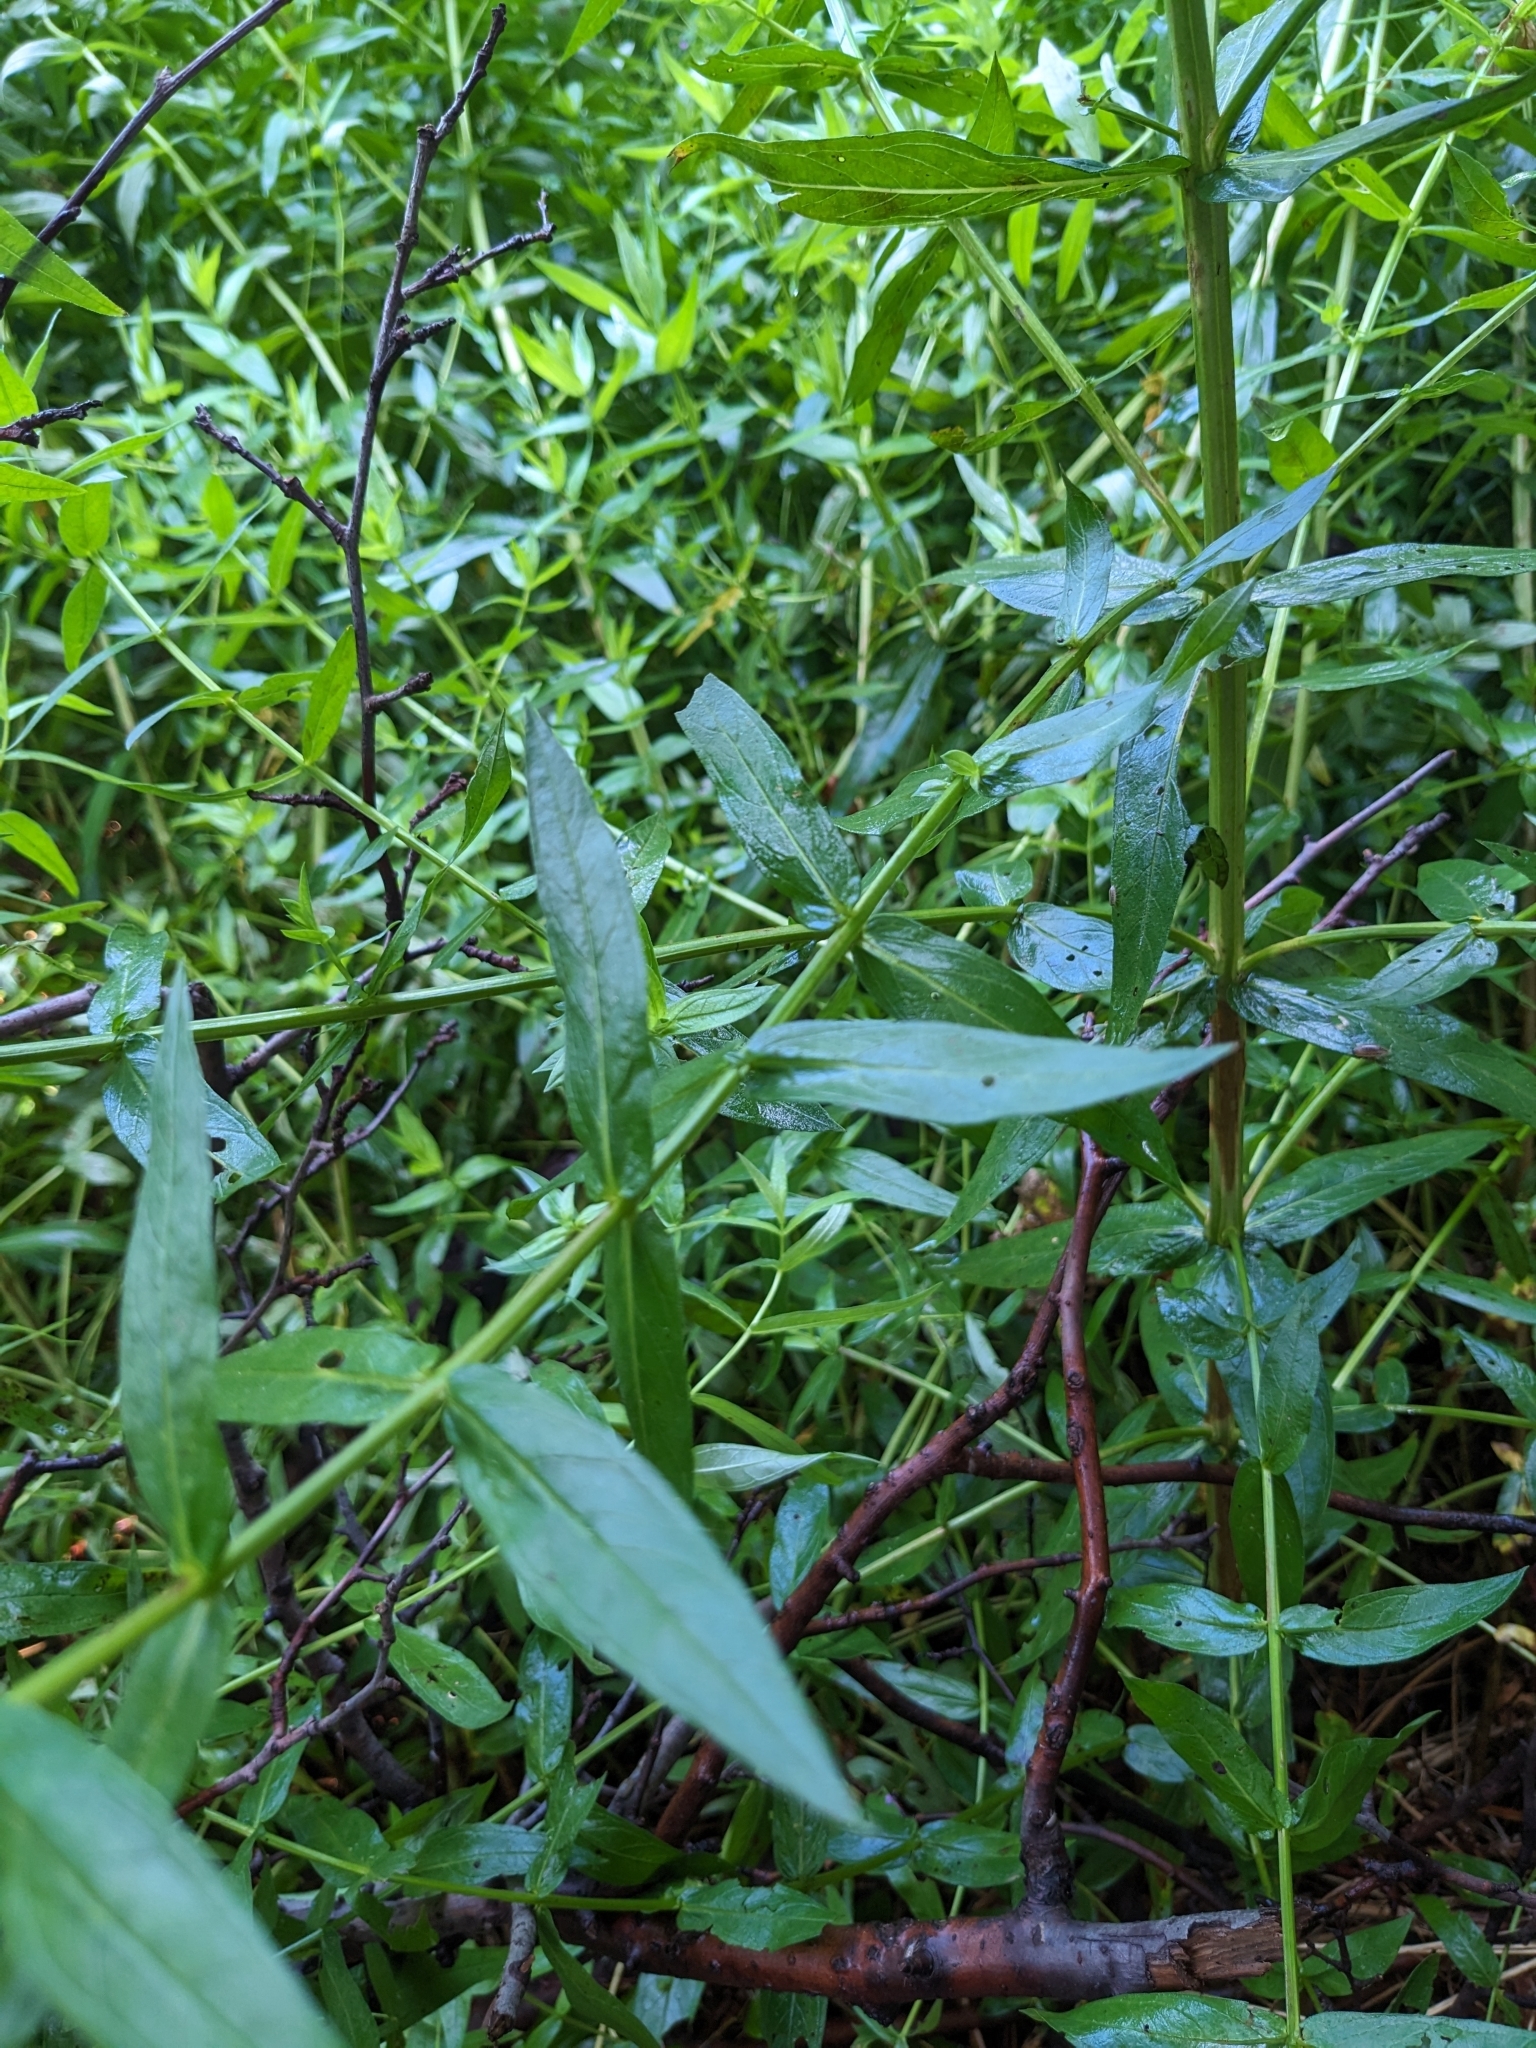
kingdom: Plantae
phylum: Tracheophyta
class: Magnoliopsida
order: Myrtales
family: Lythraceae
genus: Lythrum
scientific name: Lythrum salicaria
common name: Purple loosestrife
